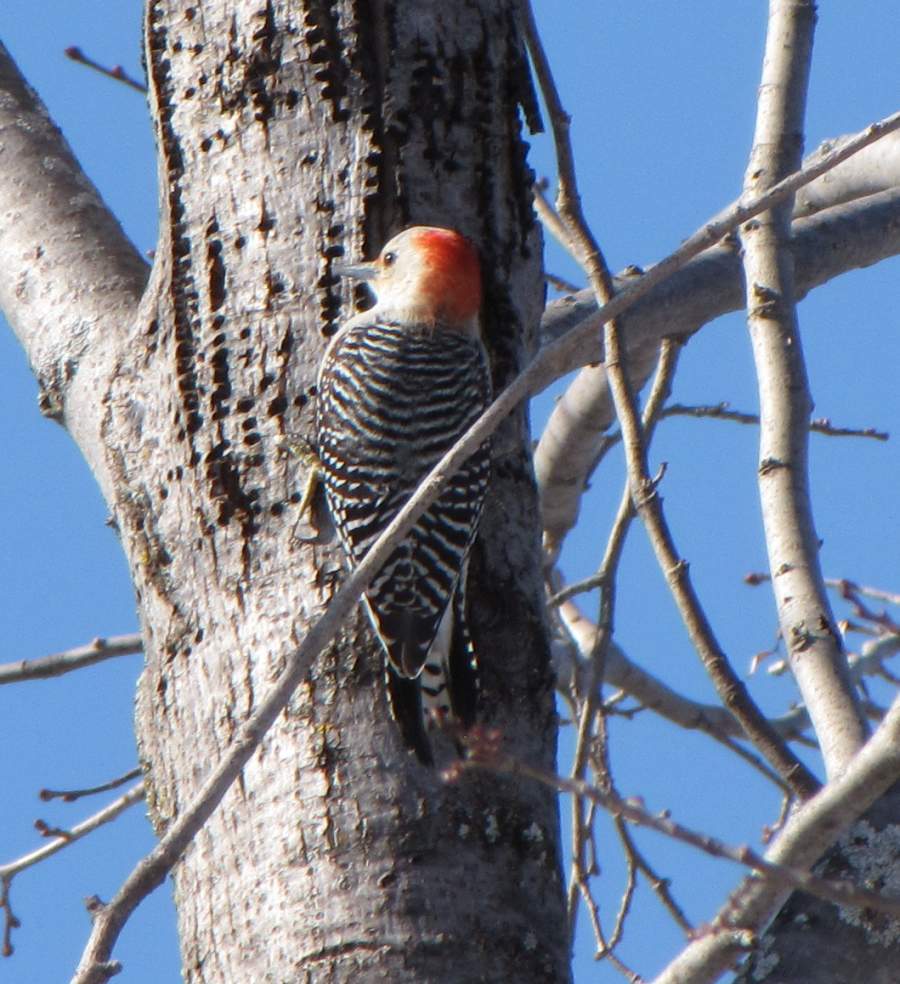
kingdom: Animalia
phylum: Chordata
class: Aves
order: Piciformes
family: Picidae
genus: Melanerpes
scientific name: Melanerpes carolinus
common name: Red-bellied woodpecker
